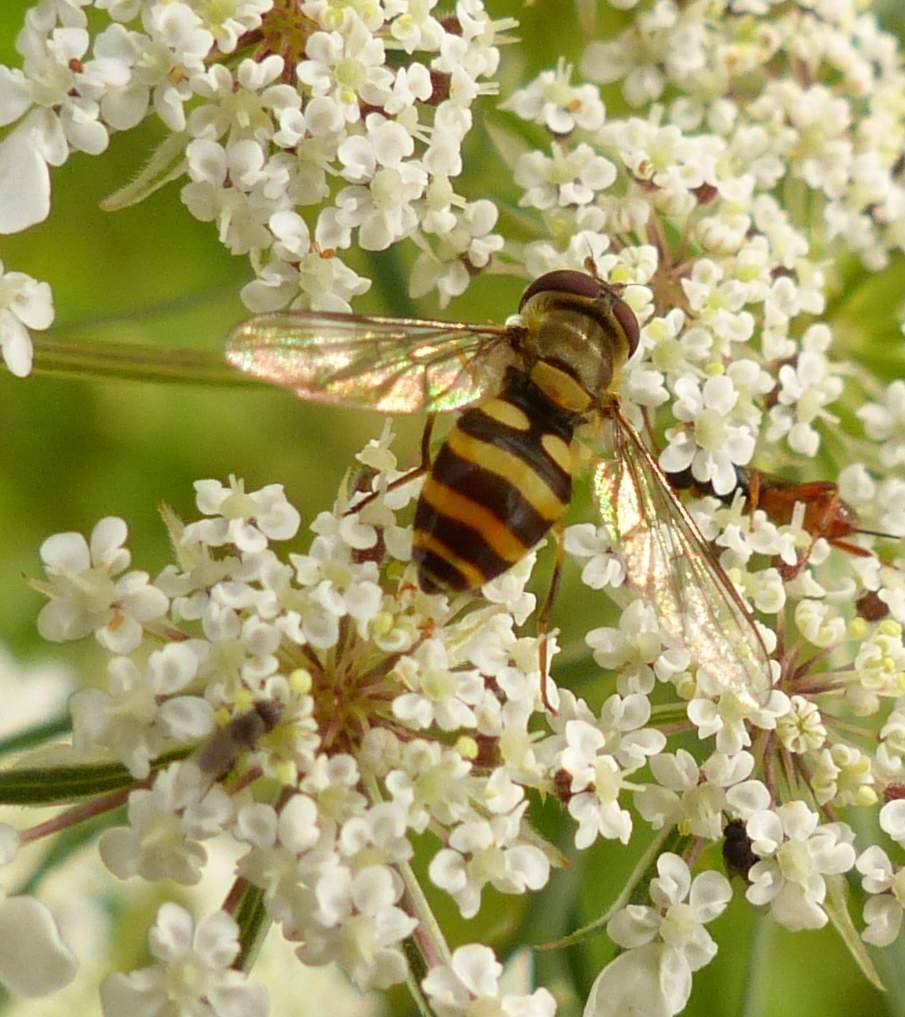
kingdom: Animalia
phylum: Arthropoda
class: Insecta
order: Diptera
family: Syrphidae
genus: Syrphus
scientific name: Syrphus
